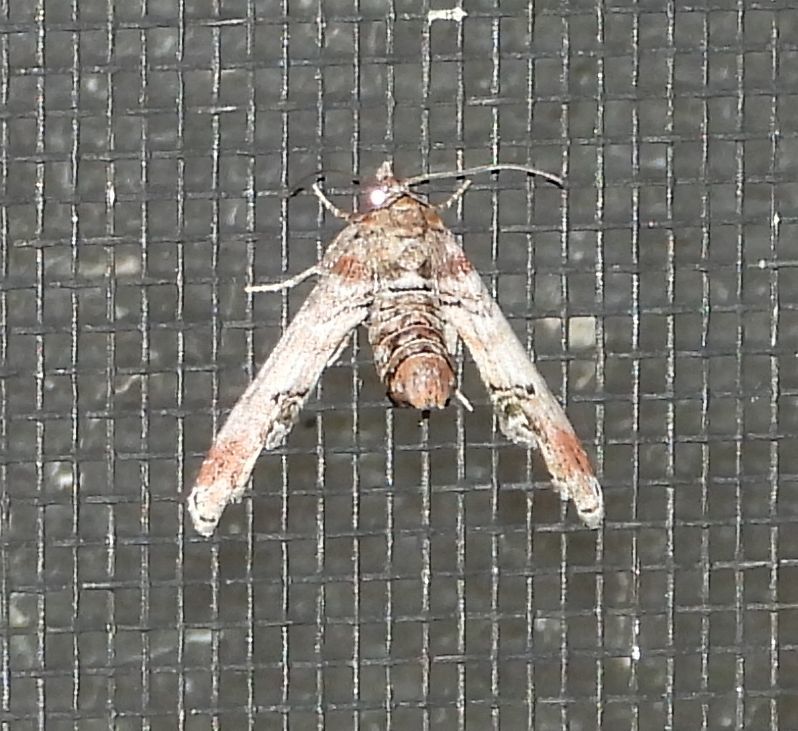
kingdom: Animalia
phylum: Arthropoda
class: Insecta
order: Lepidoptera
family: Euteliidae
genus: Marathyssa
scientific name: Marathyssa inficita
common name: Dark marathyssa moth
